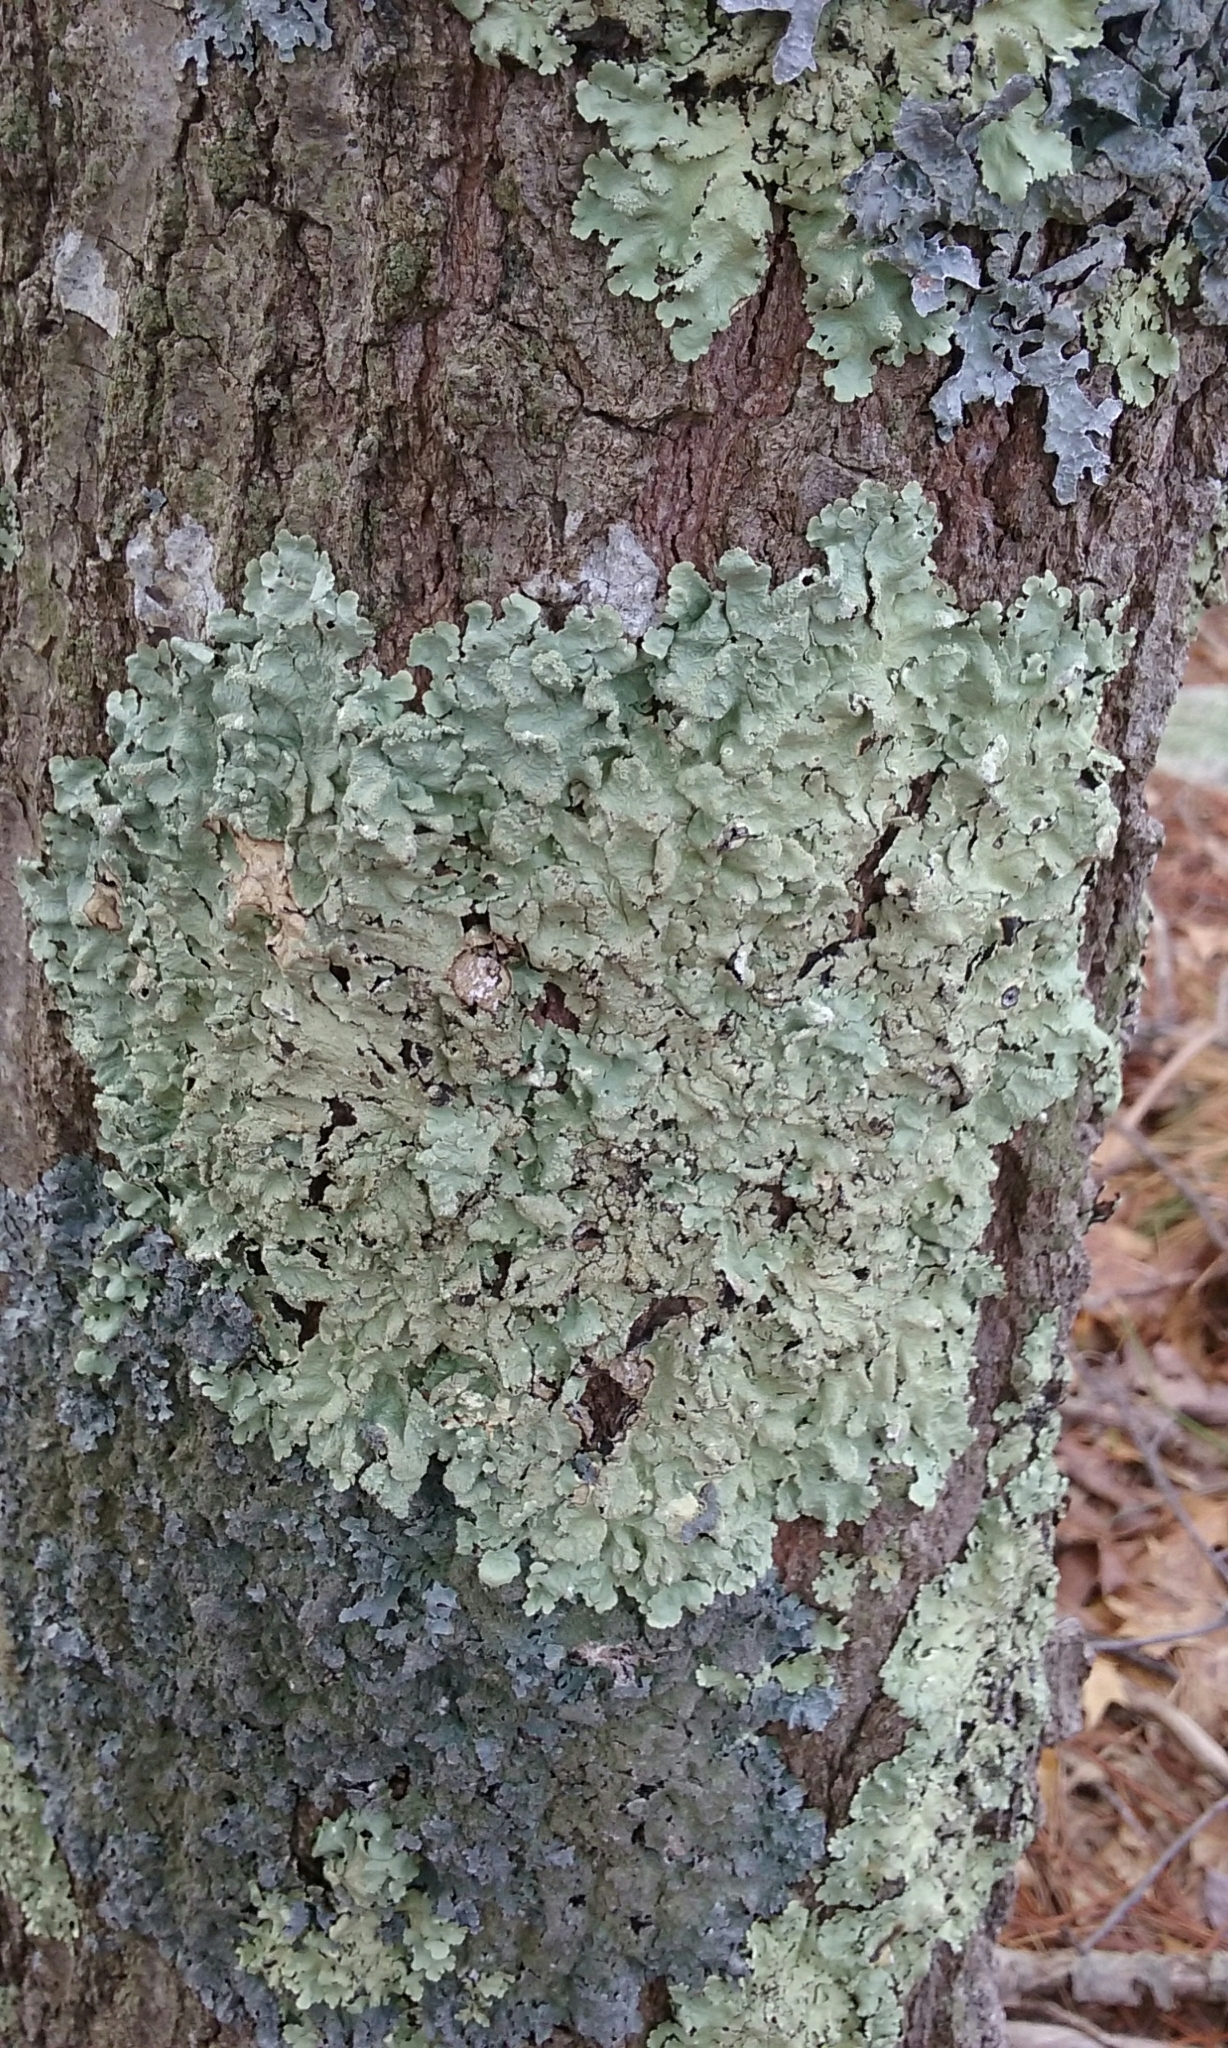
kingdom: Fungi
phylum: Ascomycota
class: Lecanoromycetes
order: Lecanorales
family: Parmeliaceae
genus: Flavoparmelia
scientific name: Flavoparmelia caperata
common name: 40-mile per hour lichen
